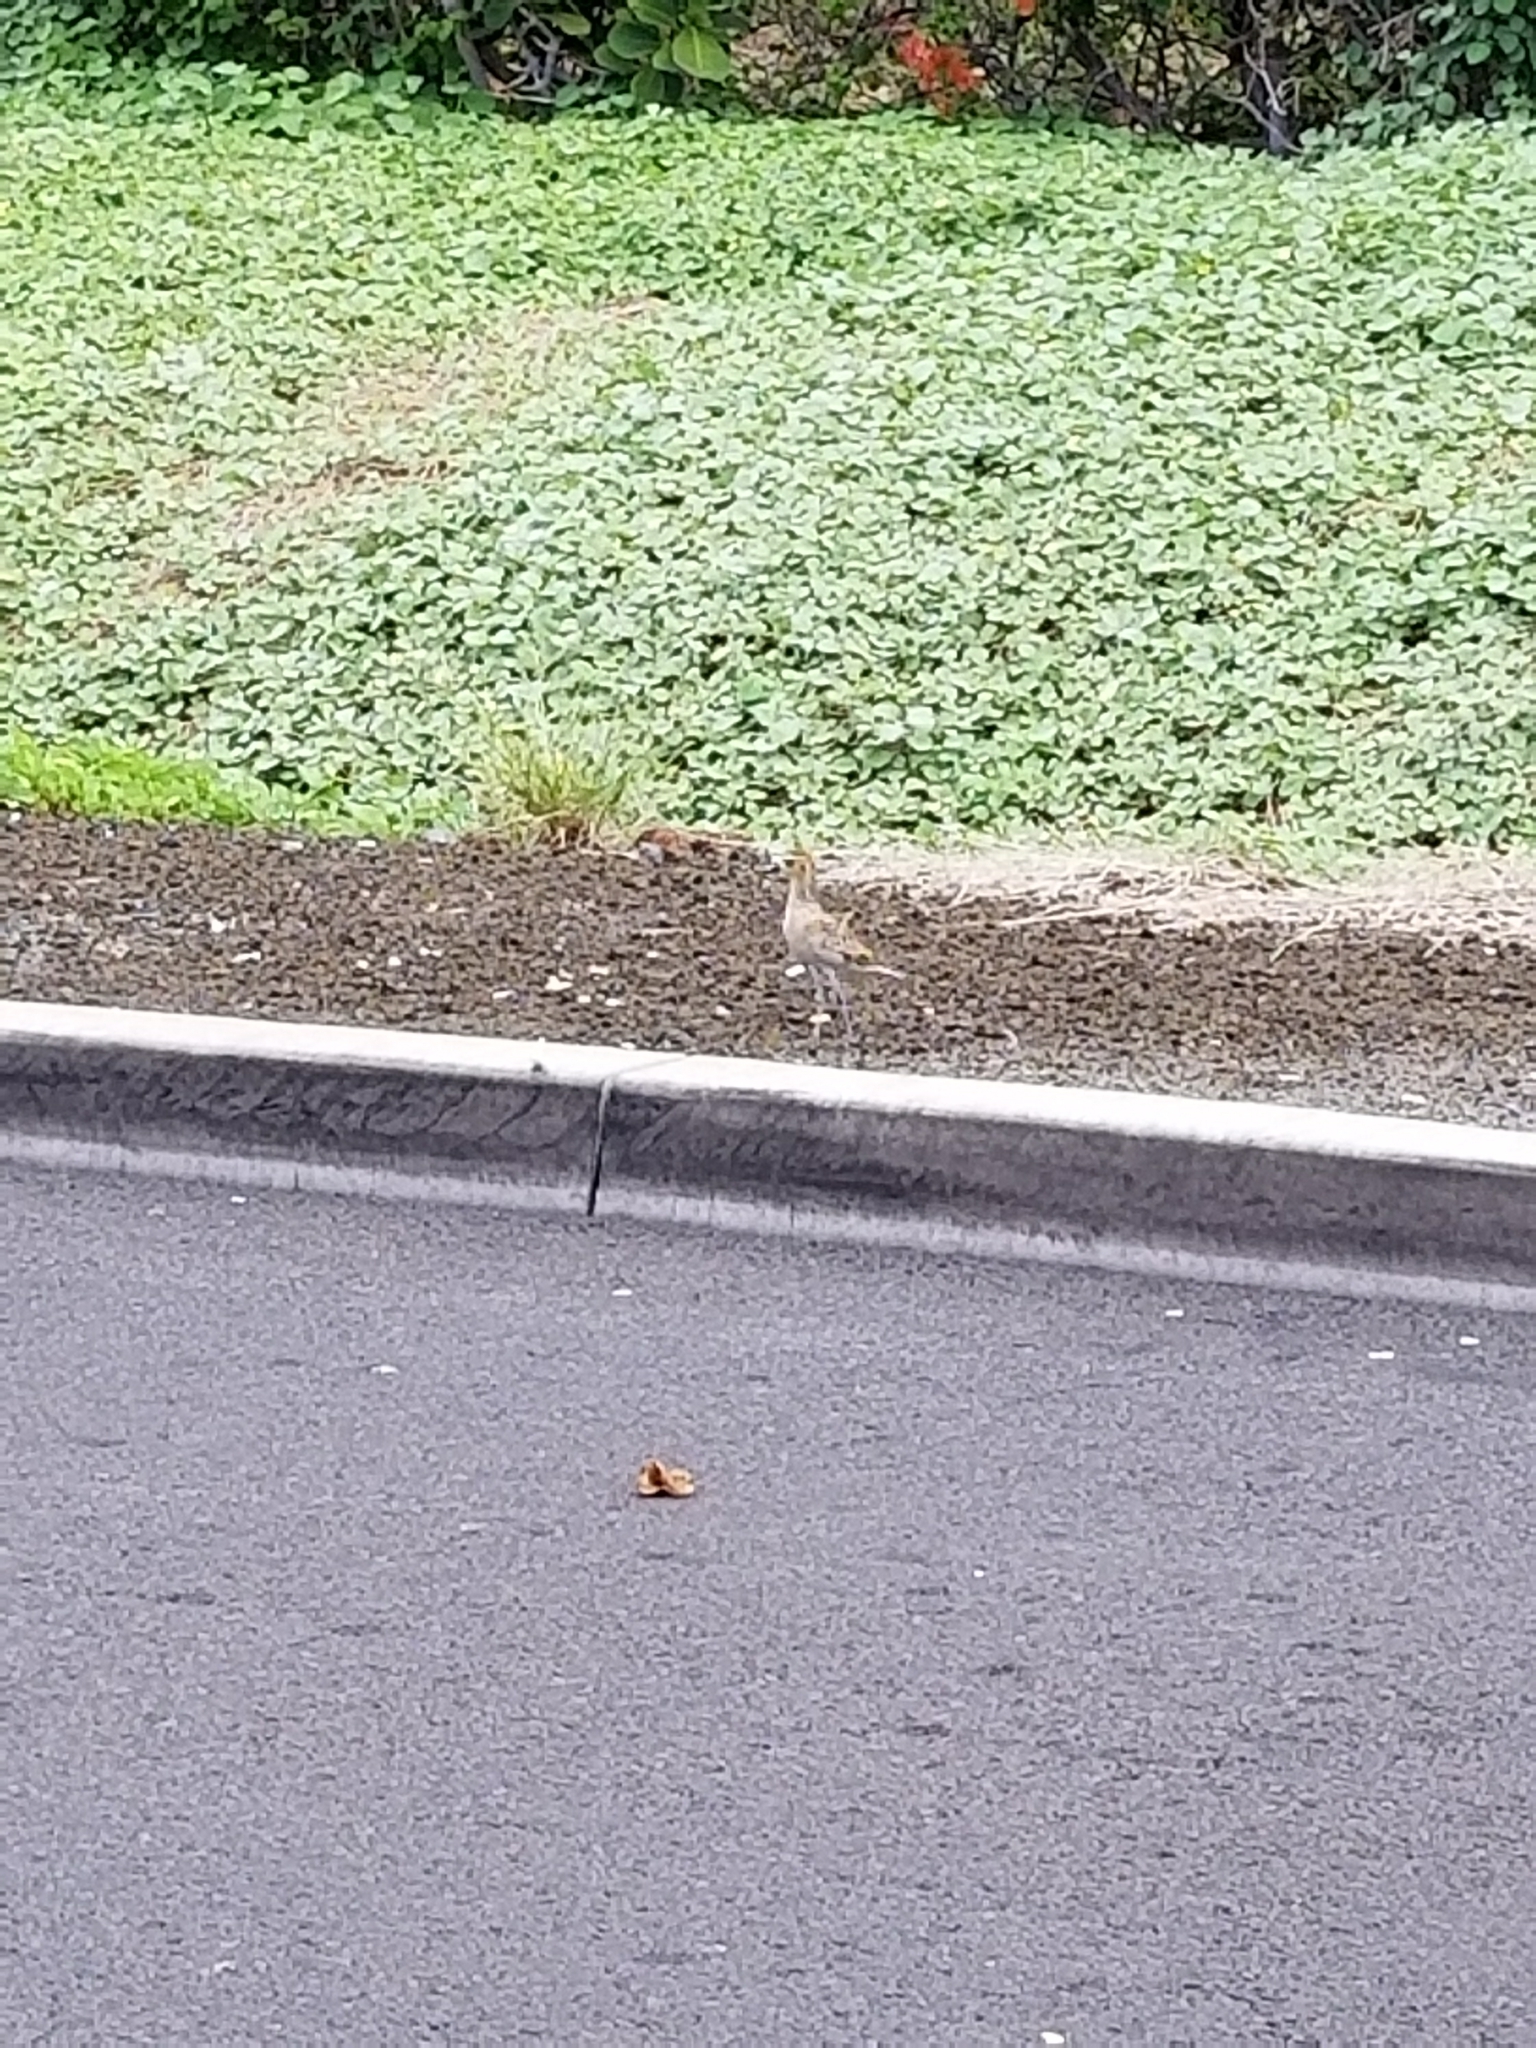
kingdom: Animalia
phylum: Chordata
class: Aves
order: Charadriiformes
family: Charadriidae
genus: Pluvialis
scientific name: Pluvialis fulva
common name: Pacific golden plover
